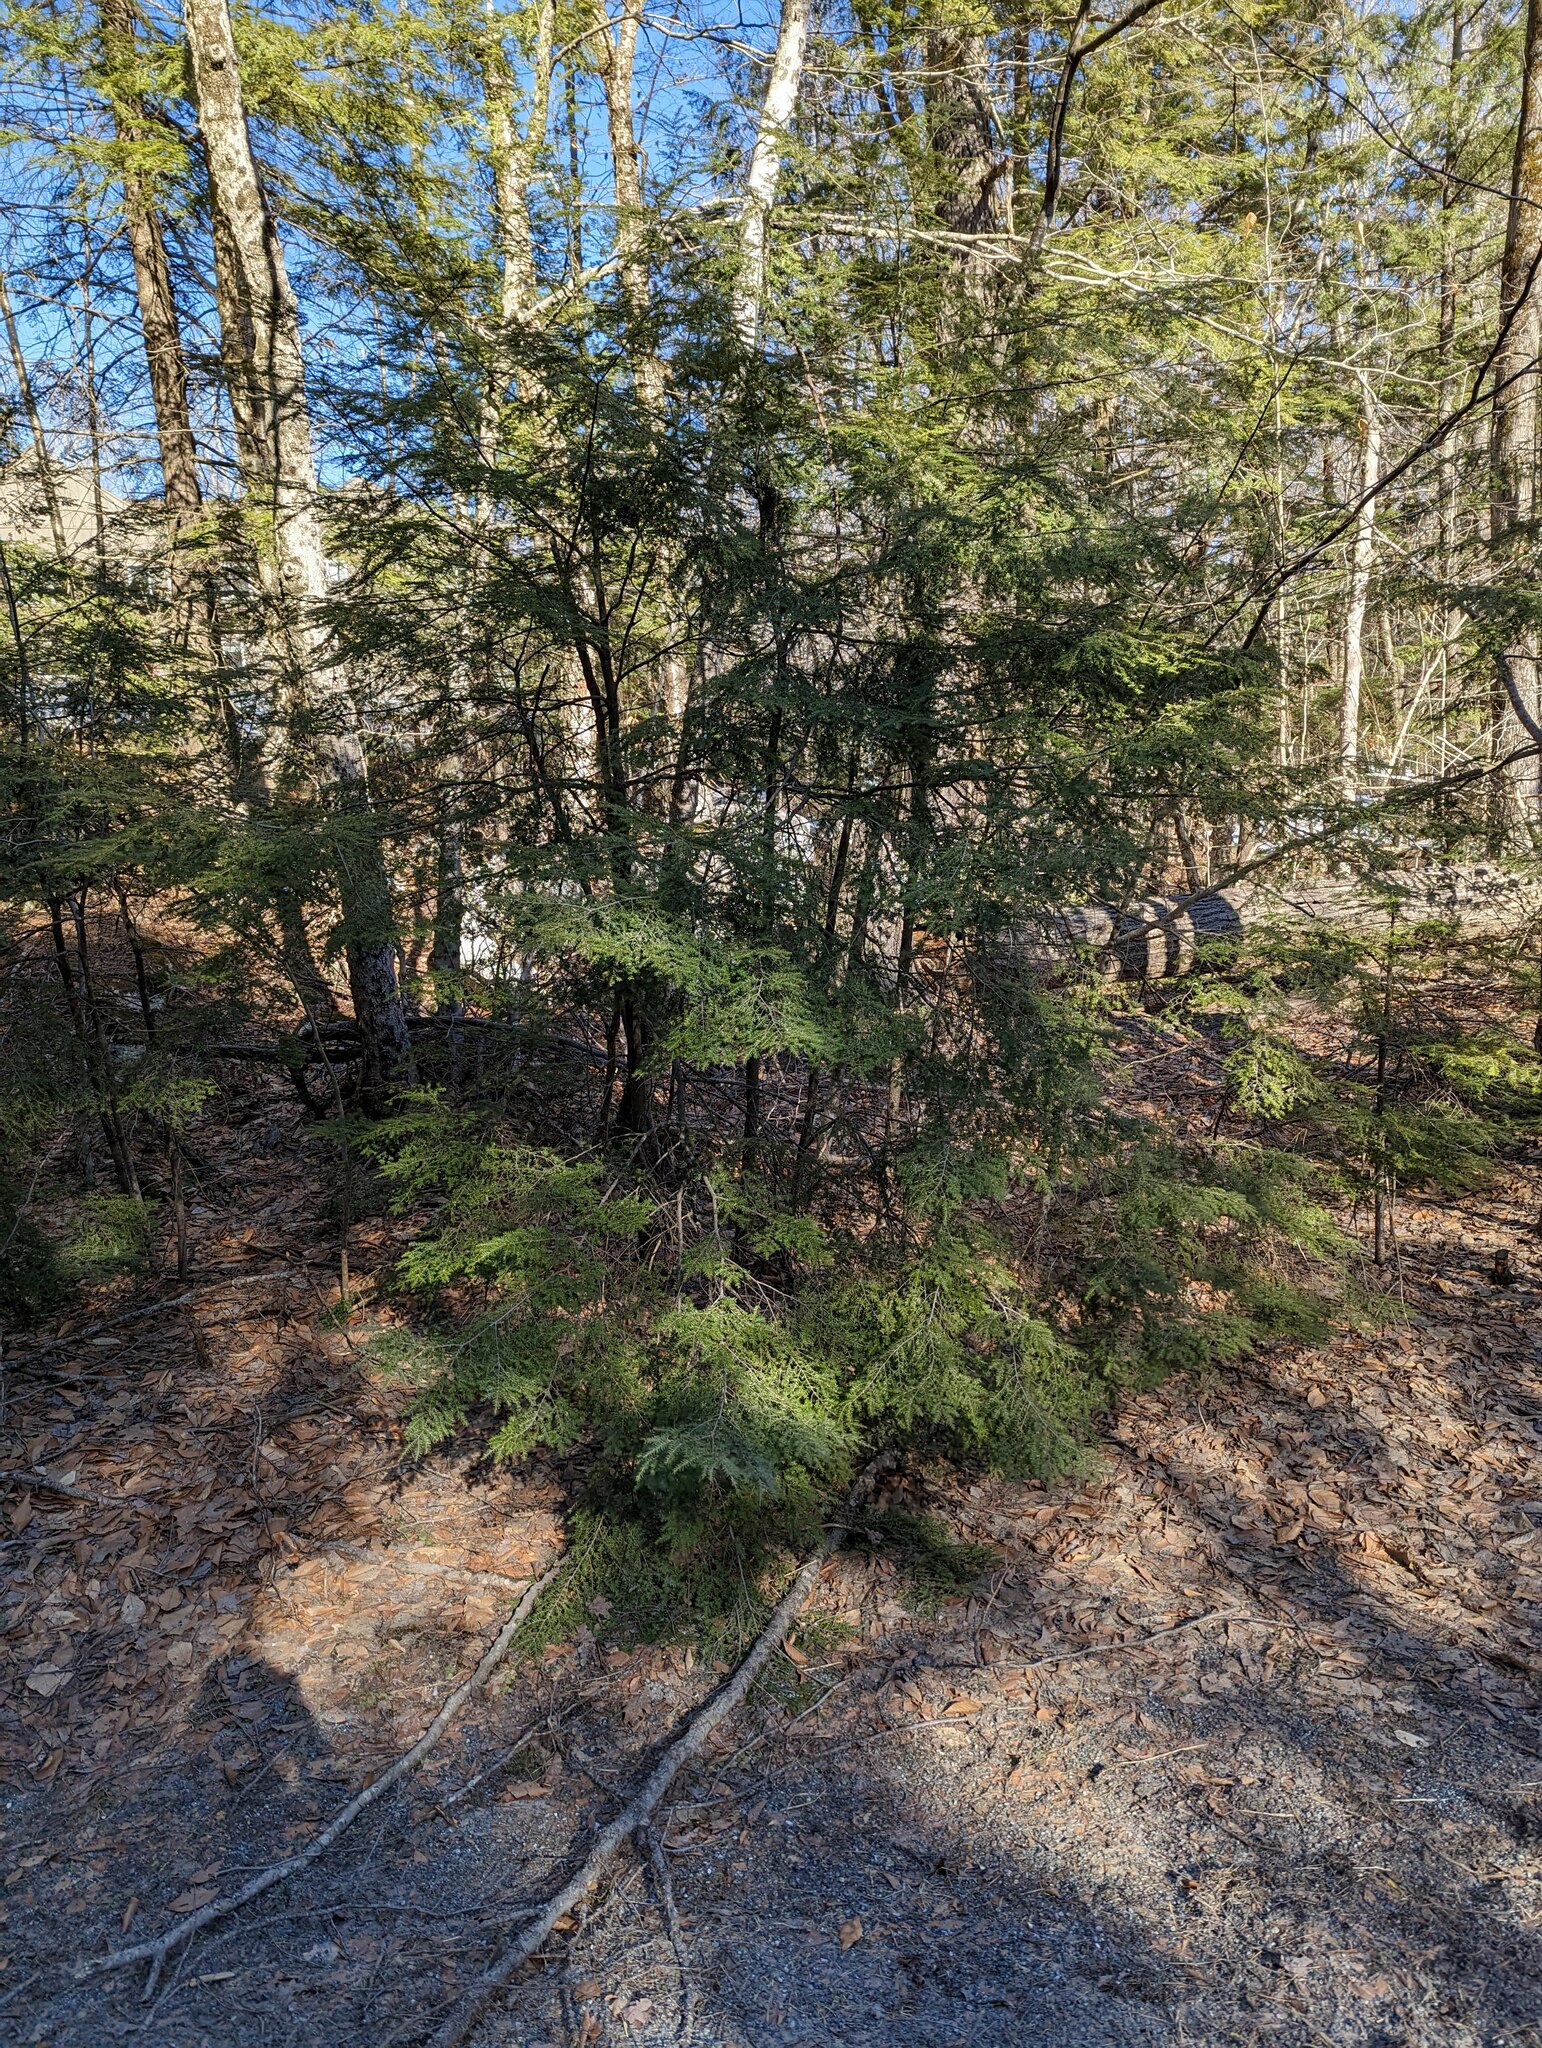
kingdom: Plantae
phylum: Tracheophyta
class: Pinopsida
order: Pinales
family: Pinaceae
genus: Tsuga
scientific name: Tsuga canadensis
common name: Eastern hemlock
